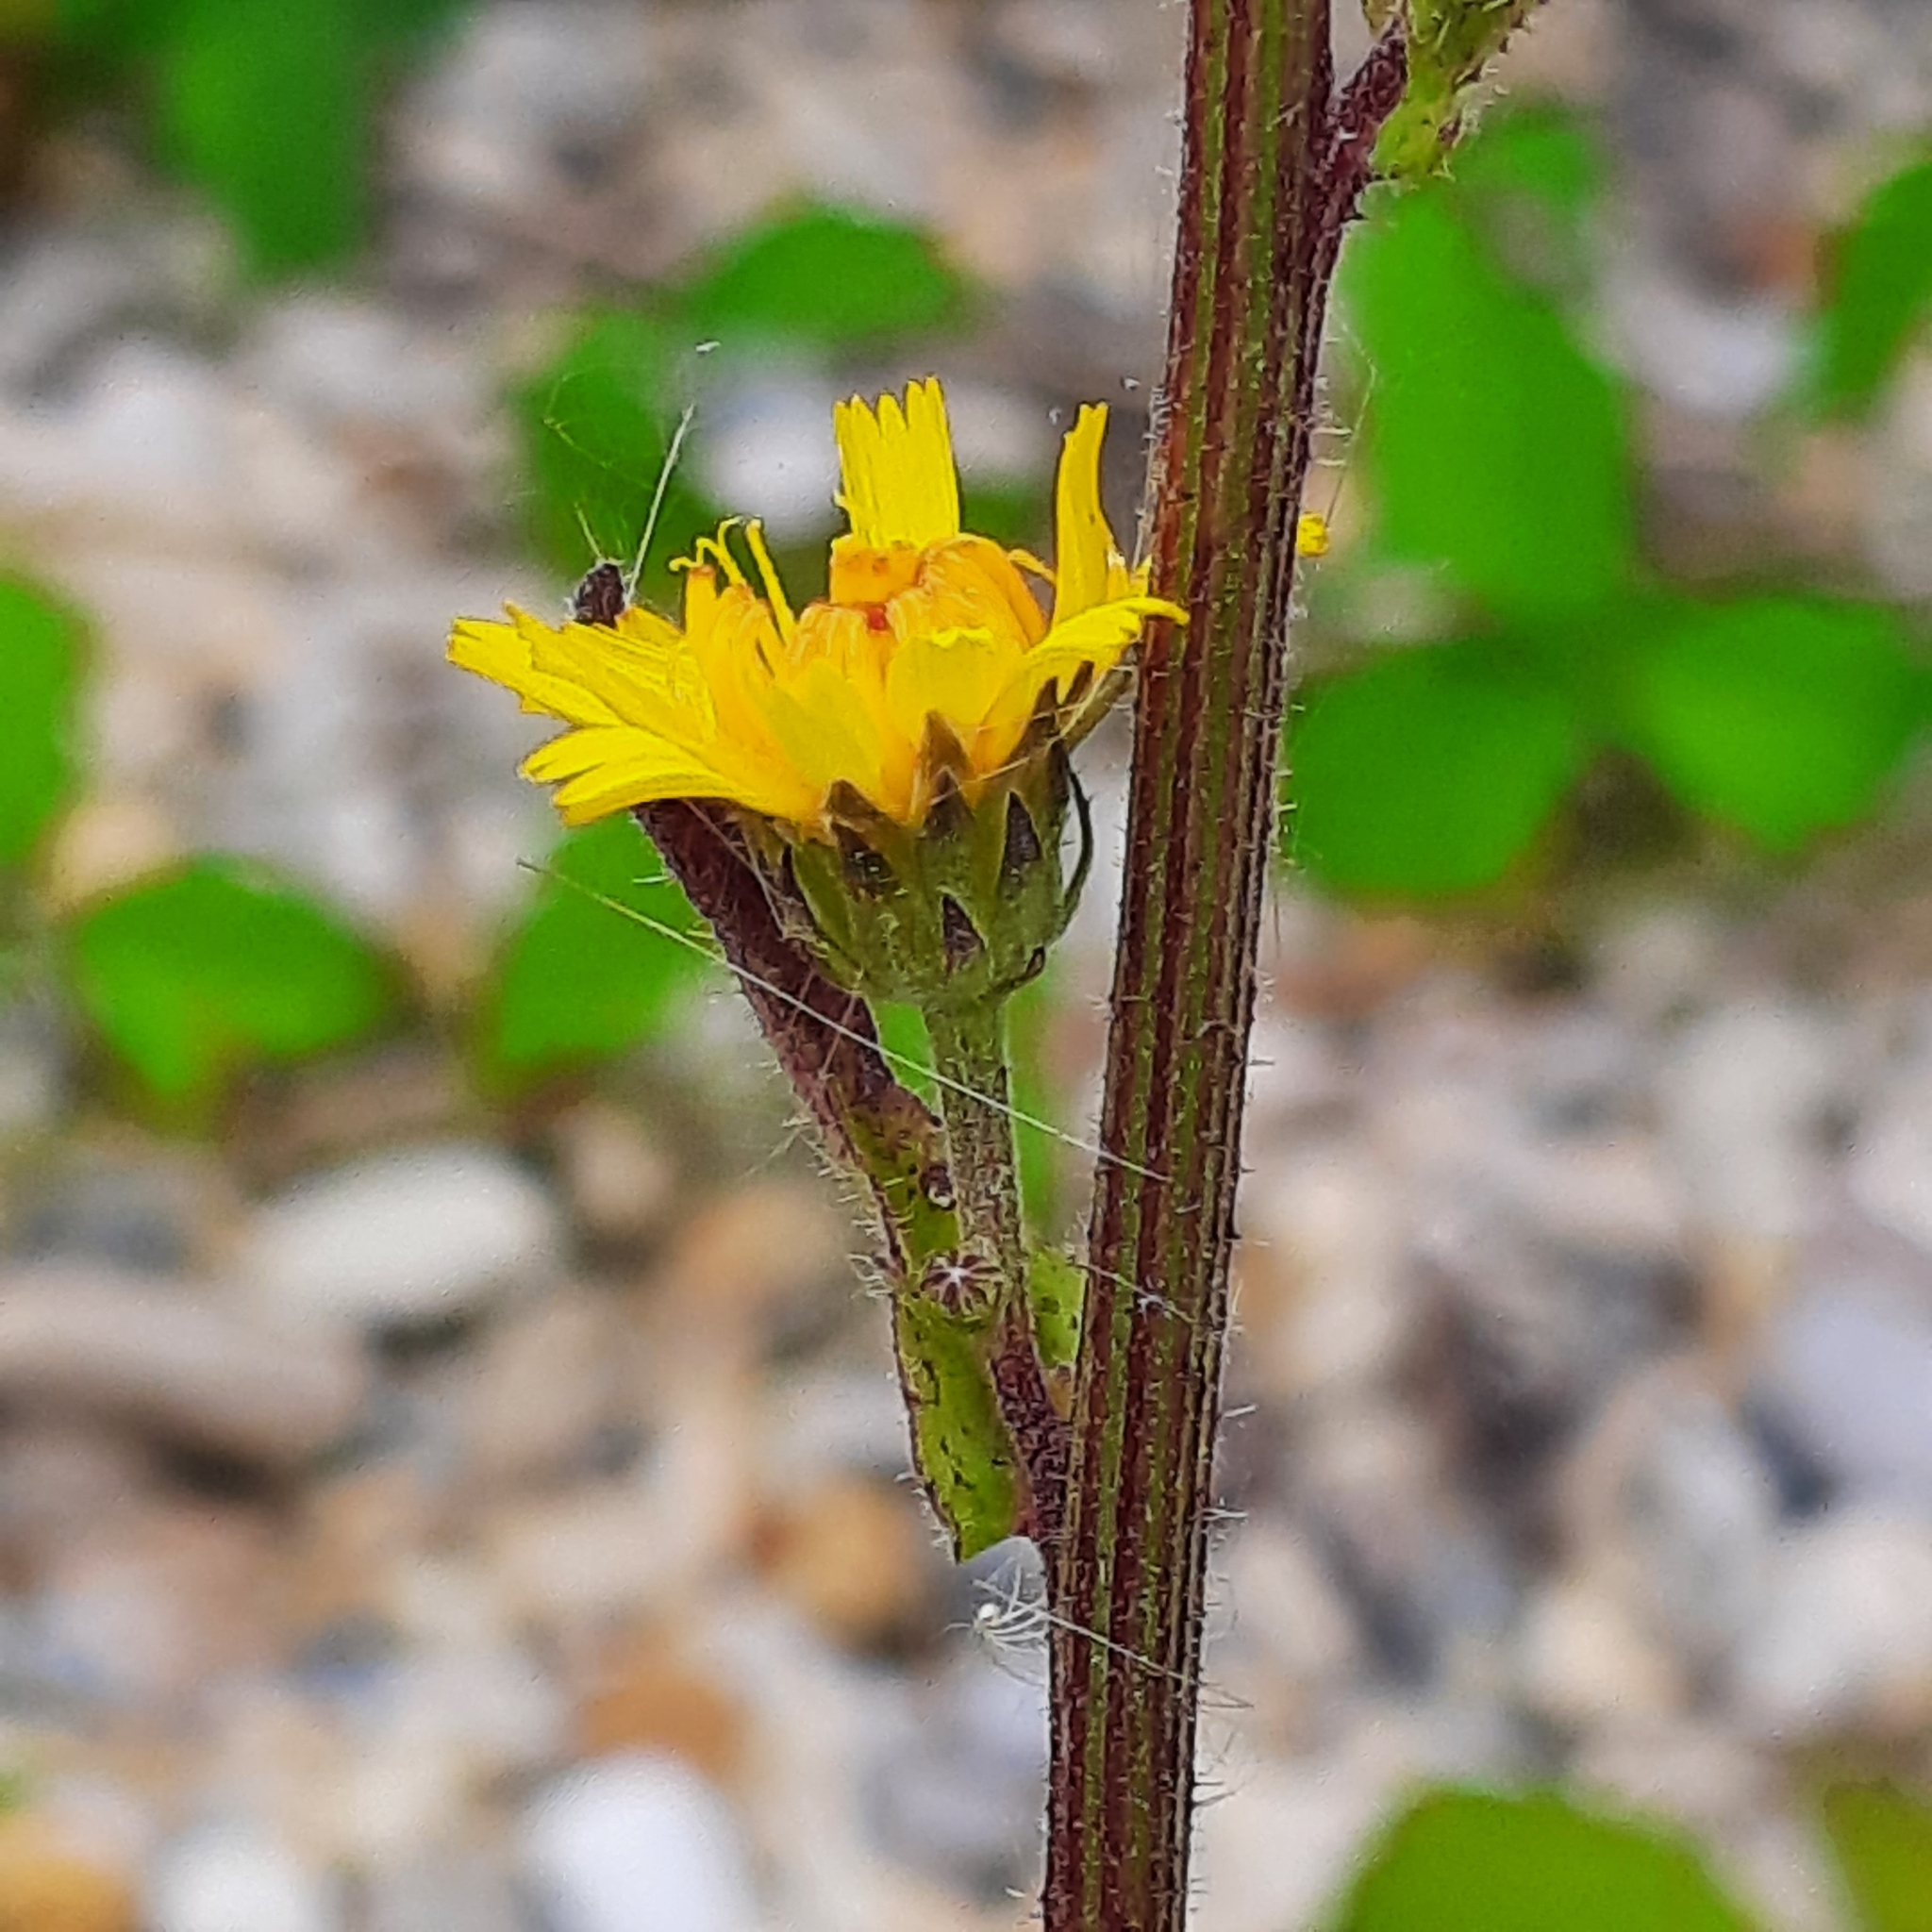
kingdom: Plantae
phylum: Tracheophyta
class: Magnoliopsida
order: Asterales
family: Asteraceae
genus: Picris
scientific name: Picris hieracioides
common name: Hawkweed oxtongue
